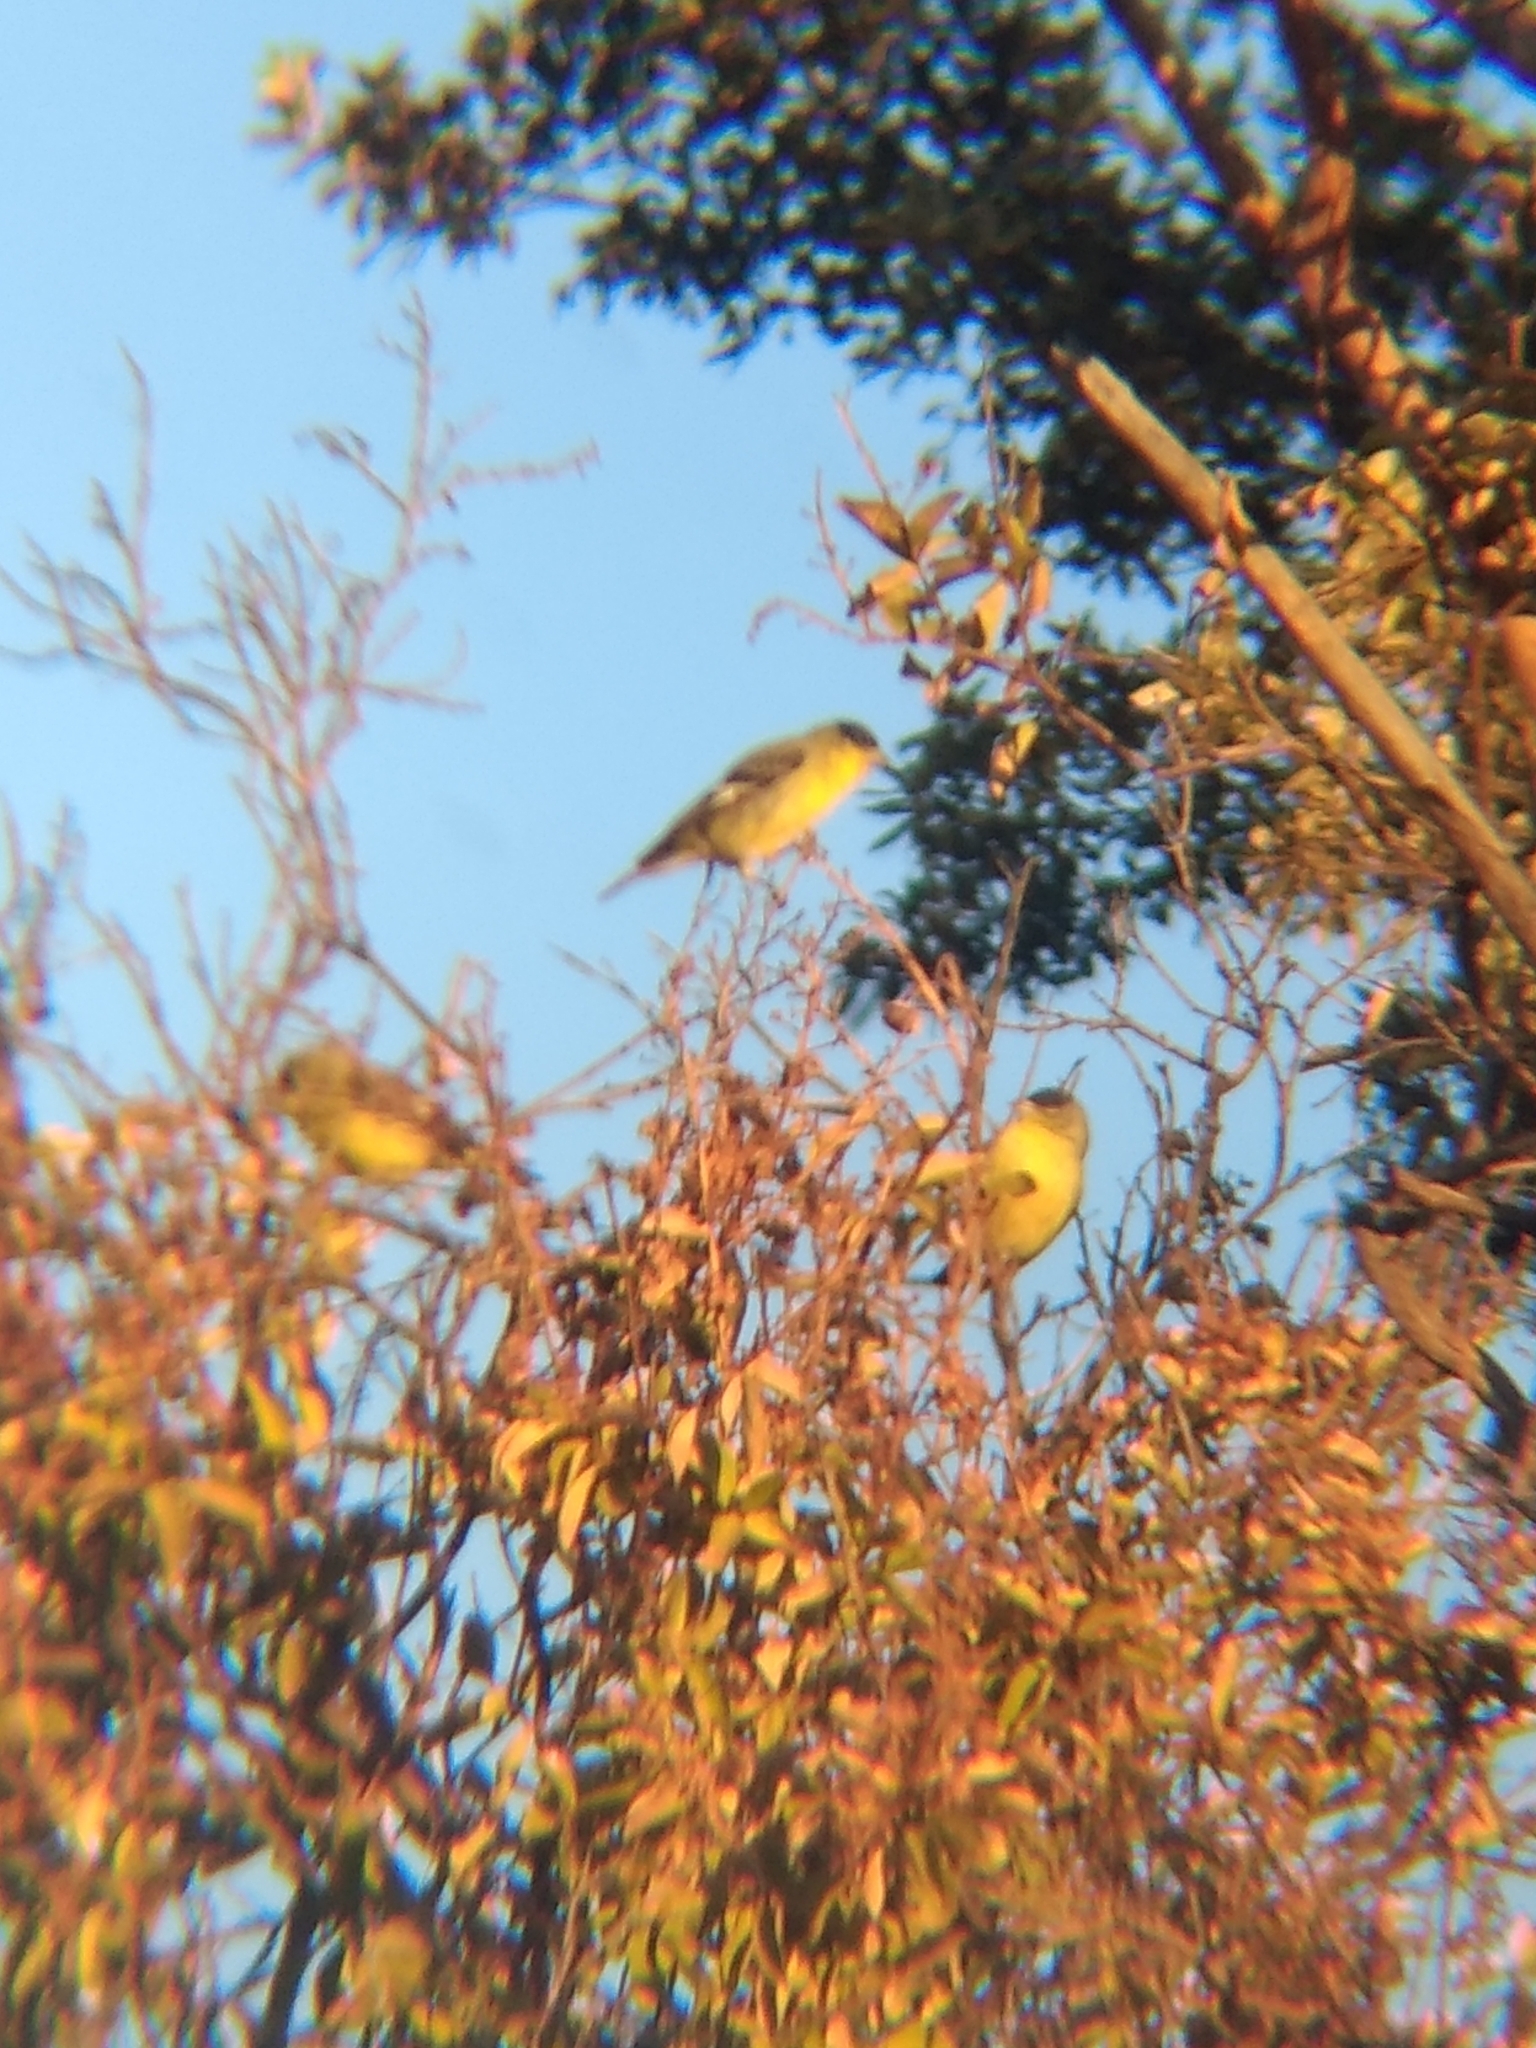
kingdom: Animalia
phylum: Chordata
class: Aves
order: Passeriformes
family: Fringillidae
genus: Spinus
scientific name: Spinus psaltria
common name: Lesser goldfinch
